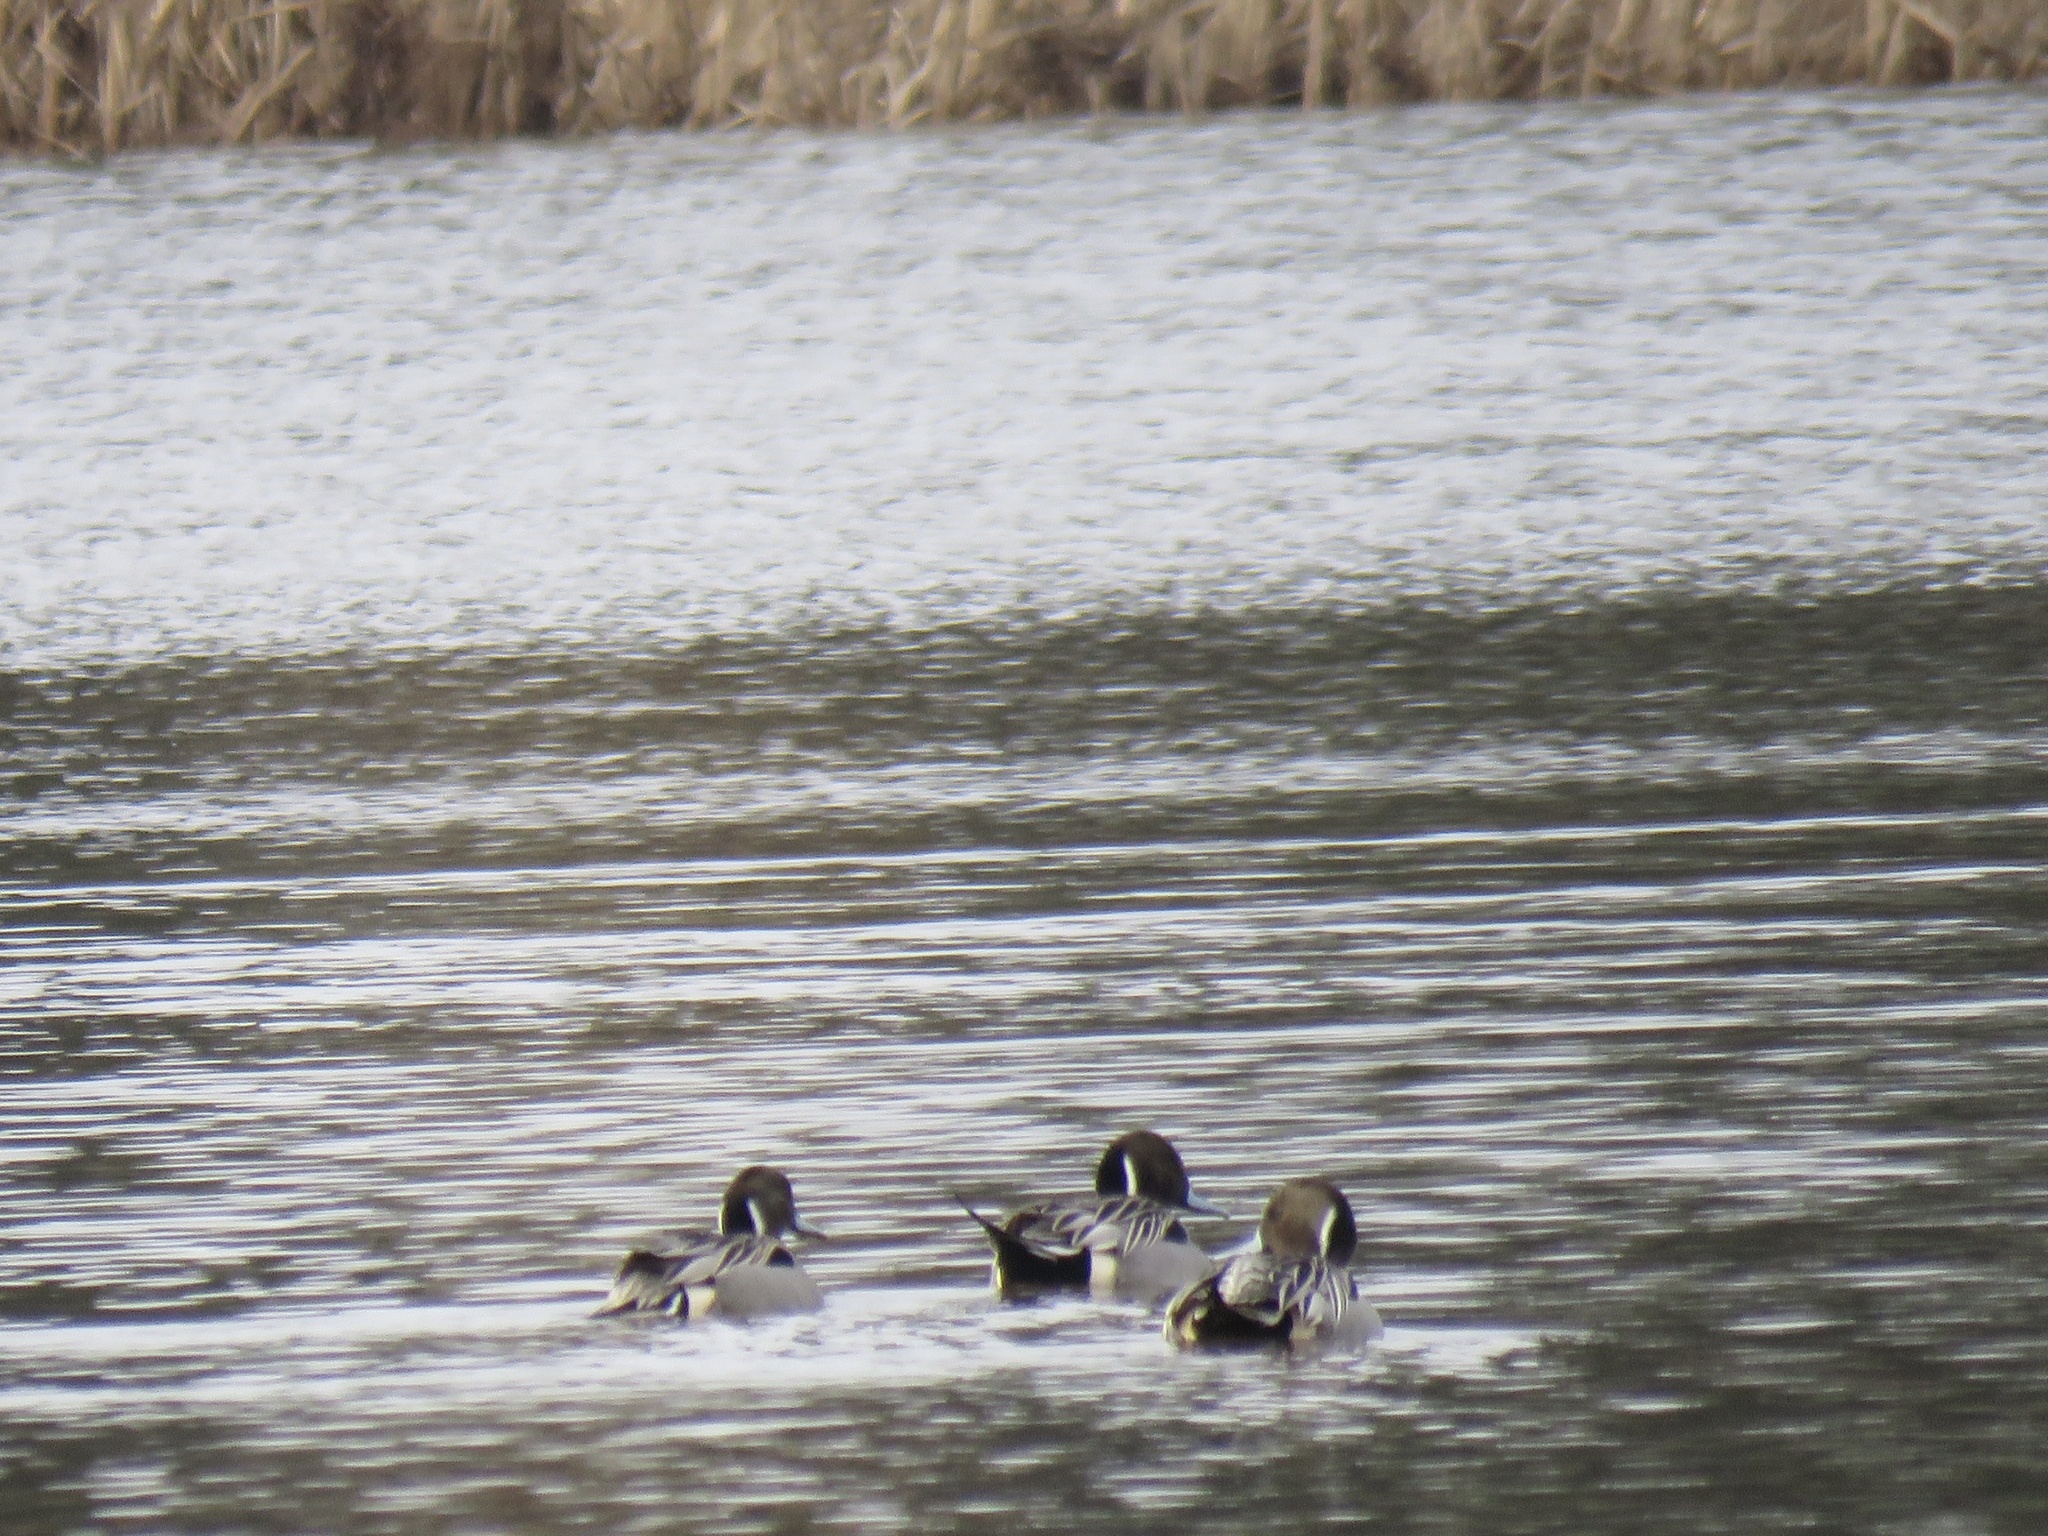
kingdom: Animalia
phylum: Chordata
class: Aves
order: Anseriformes
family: Anatidae
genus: Anas
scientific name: Anas acuta
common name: Northern pintail
